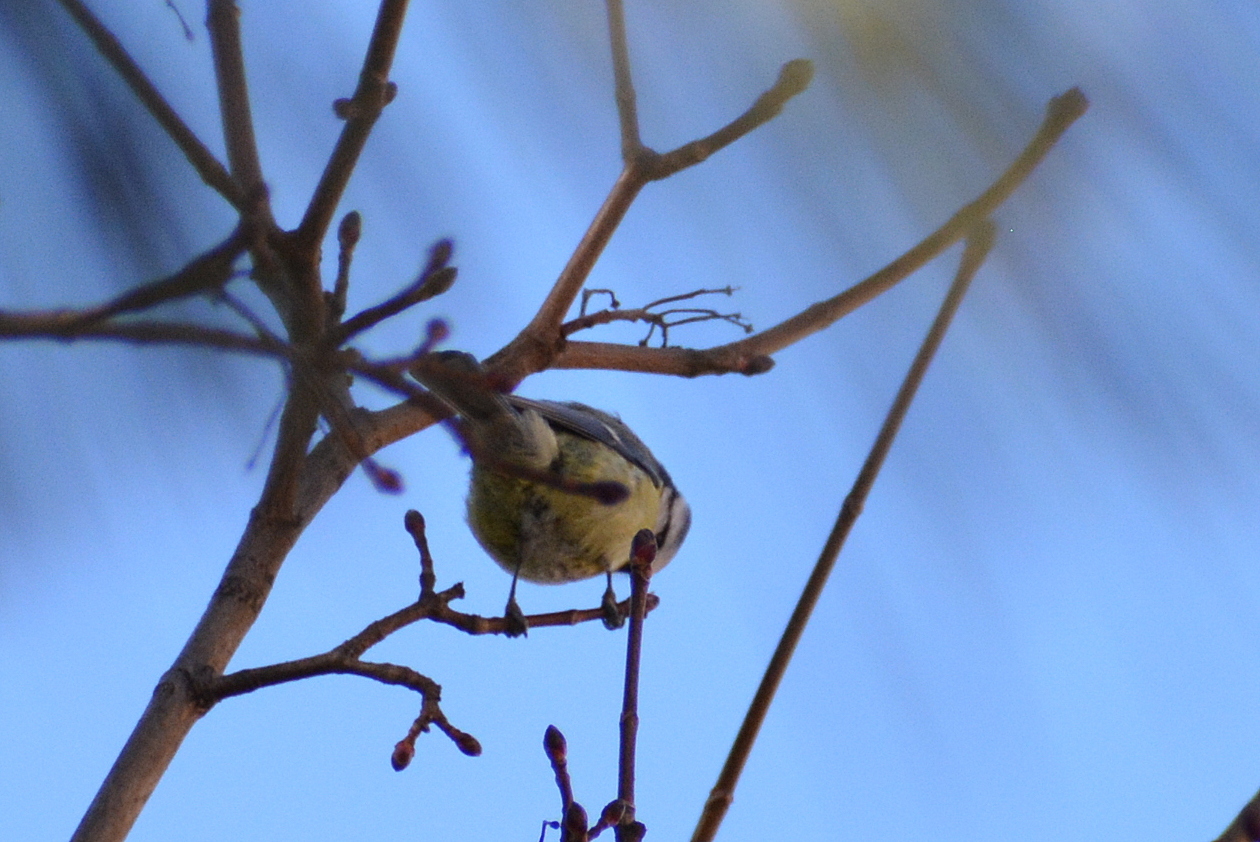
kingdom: Animalia
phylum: Chordata
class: Aves
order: Passeriformes
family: Paridae
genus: Cyanistes
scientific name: Cyanistes caeruleus
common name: Eurasian blue tit
